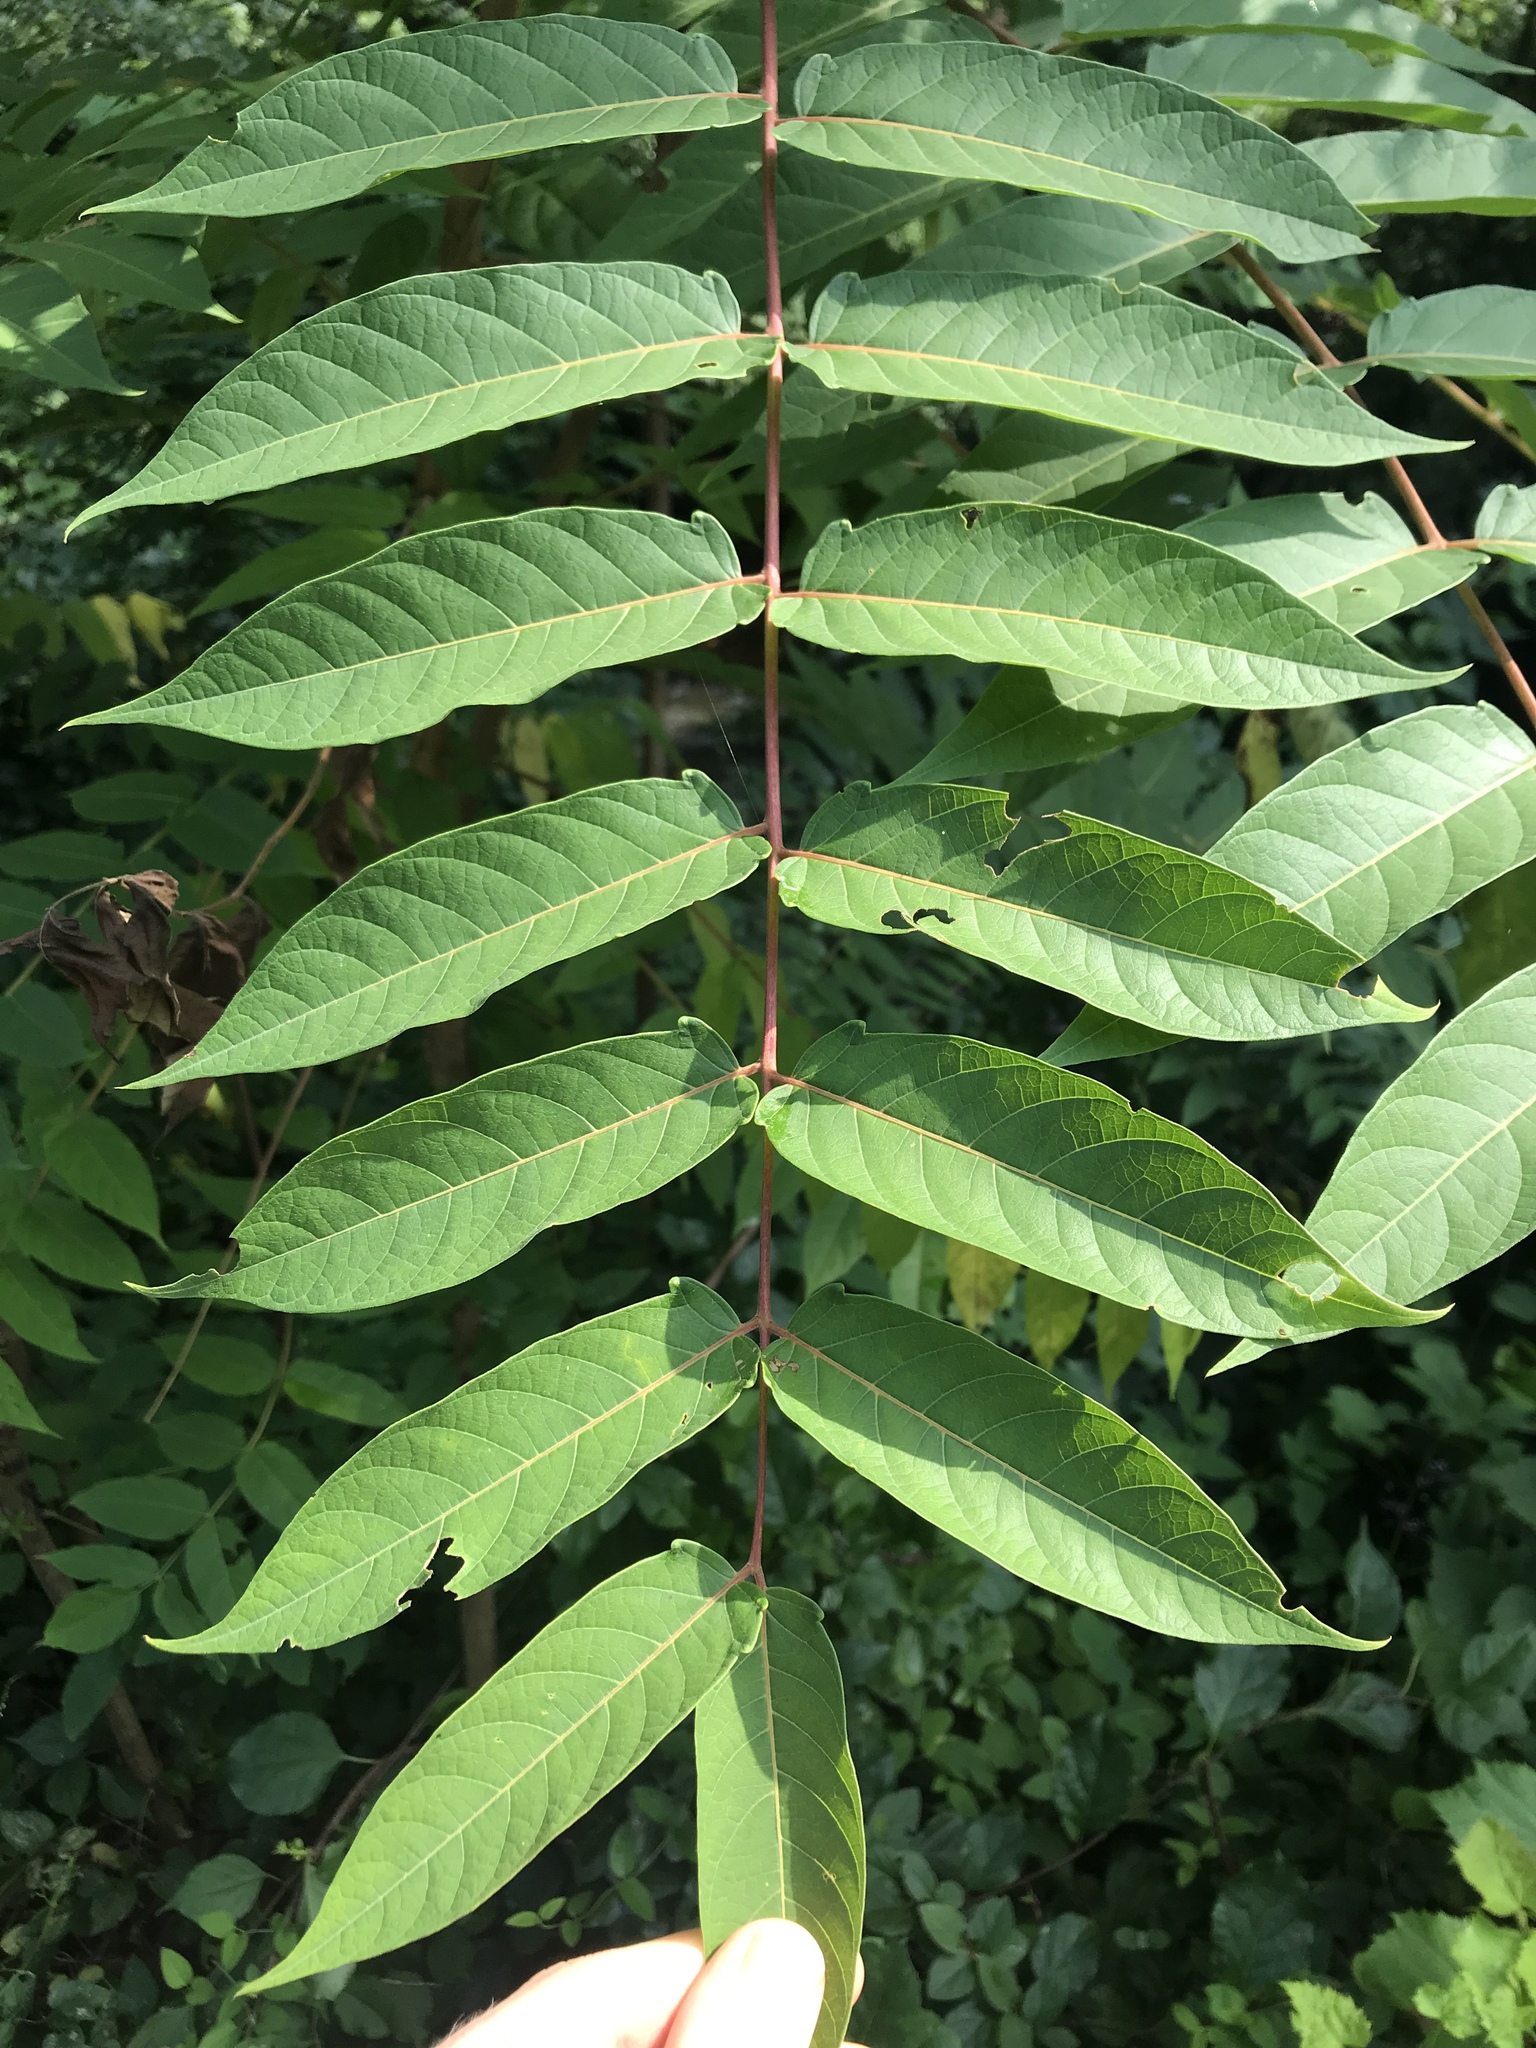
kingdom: Plantae
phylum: Tracheophyta
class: Magnoliopsida
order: Sapindales
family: Simaroubaceae
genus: Ailanthus
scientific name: Ailanthus altissima
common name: Tree-of-heaven
